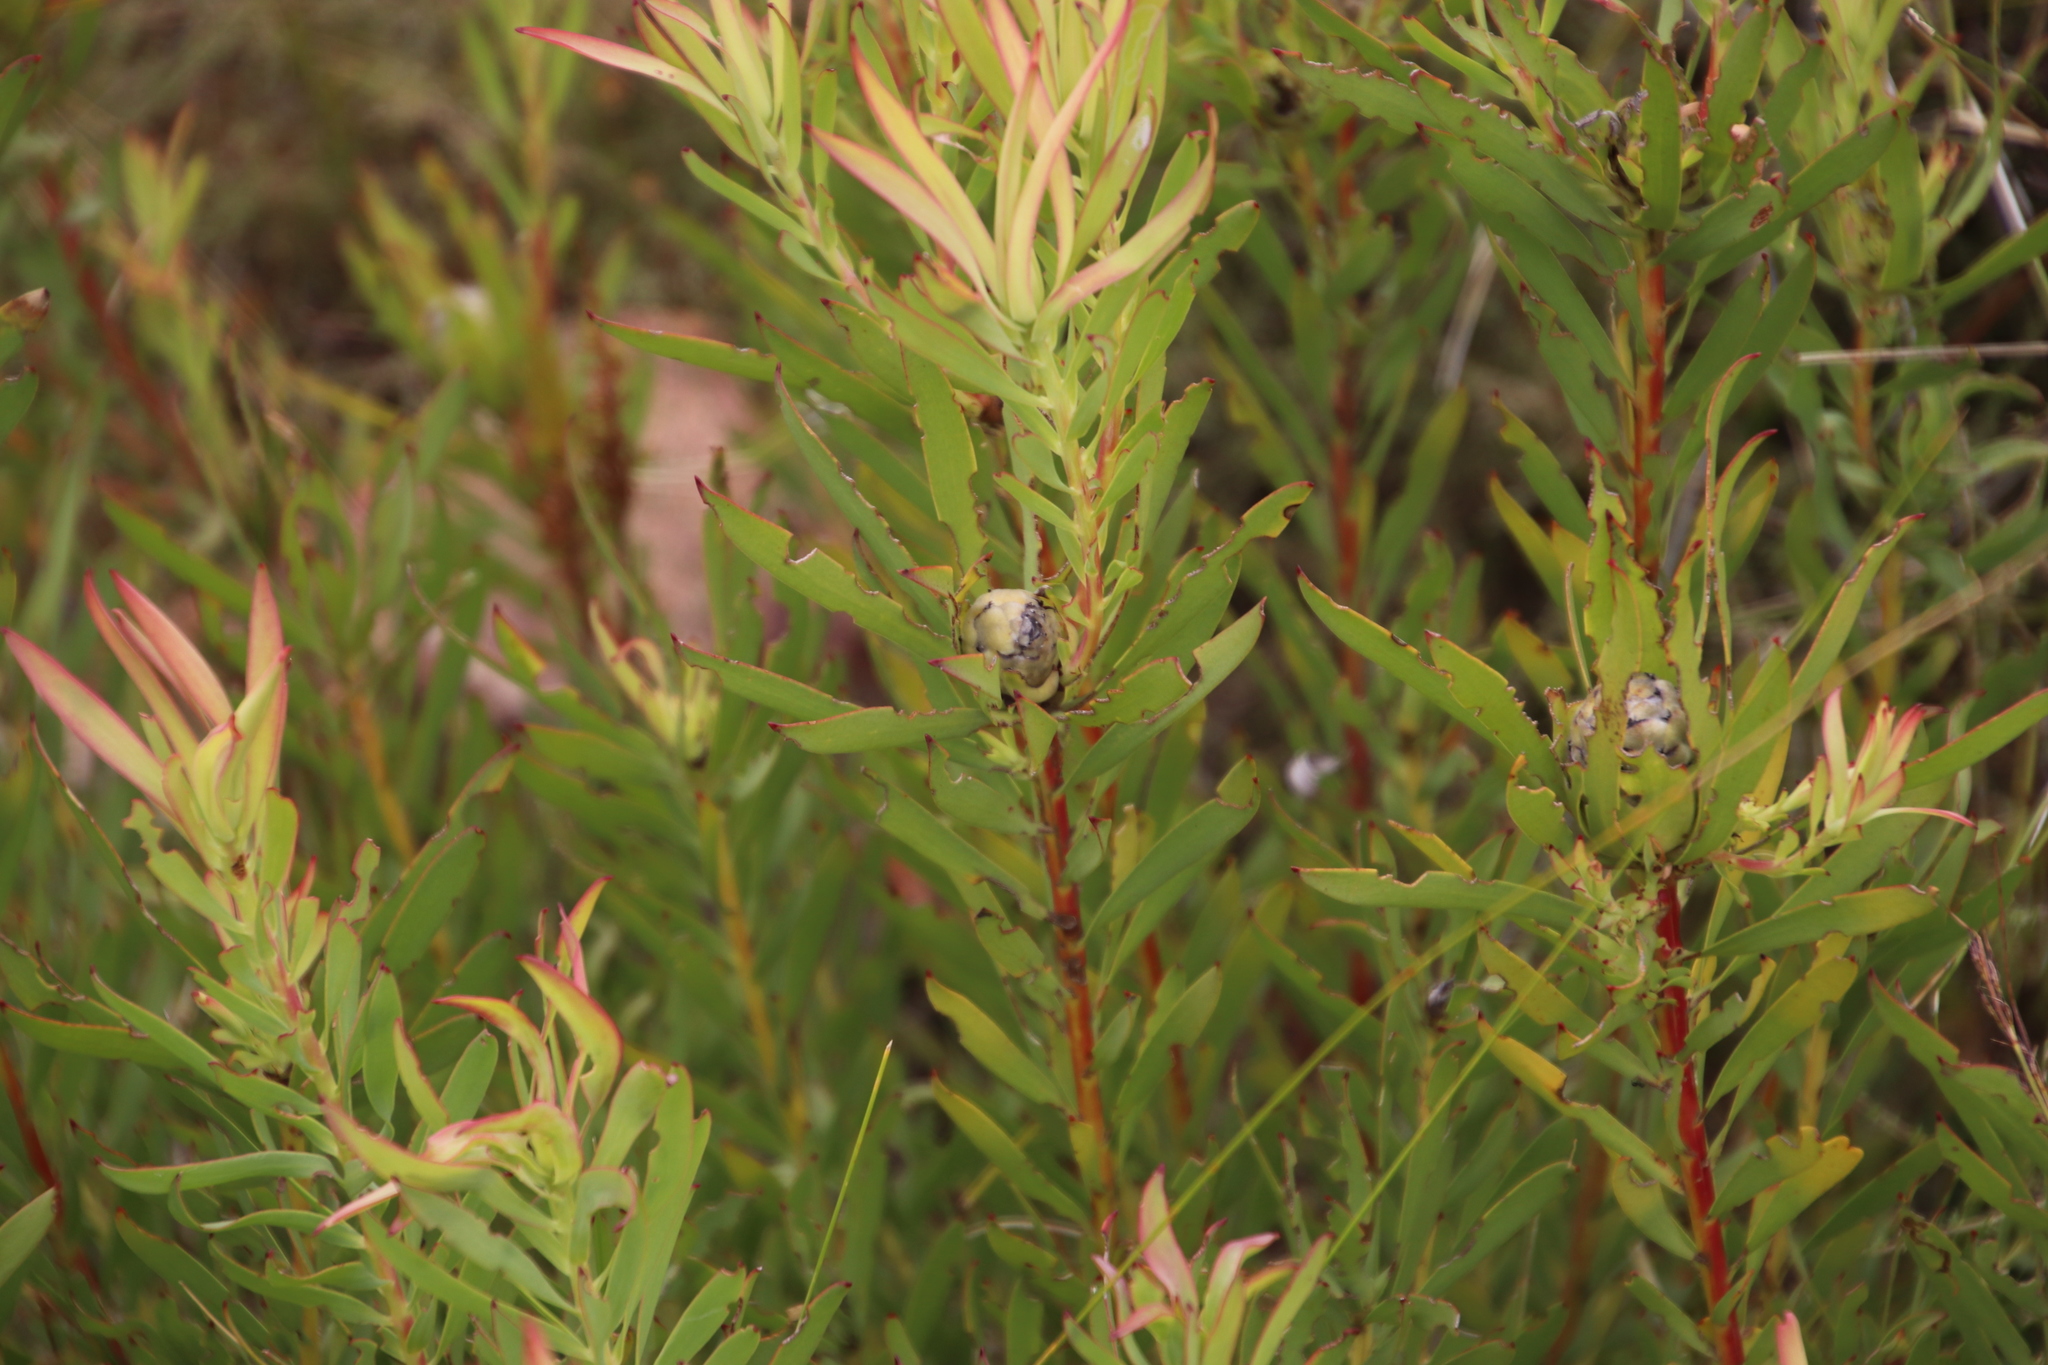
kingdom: Plantae
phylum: Tracheophyta
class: Magnoliopsida
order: Proteales
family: Proteaceae
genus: Leucadendron
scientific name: Leucadendron salignum
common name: Common sunshine conebush
